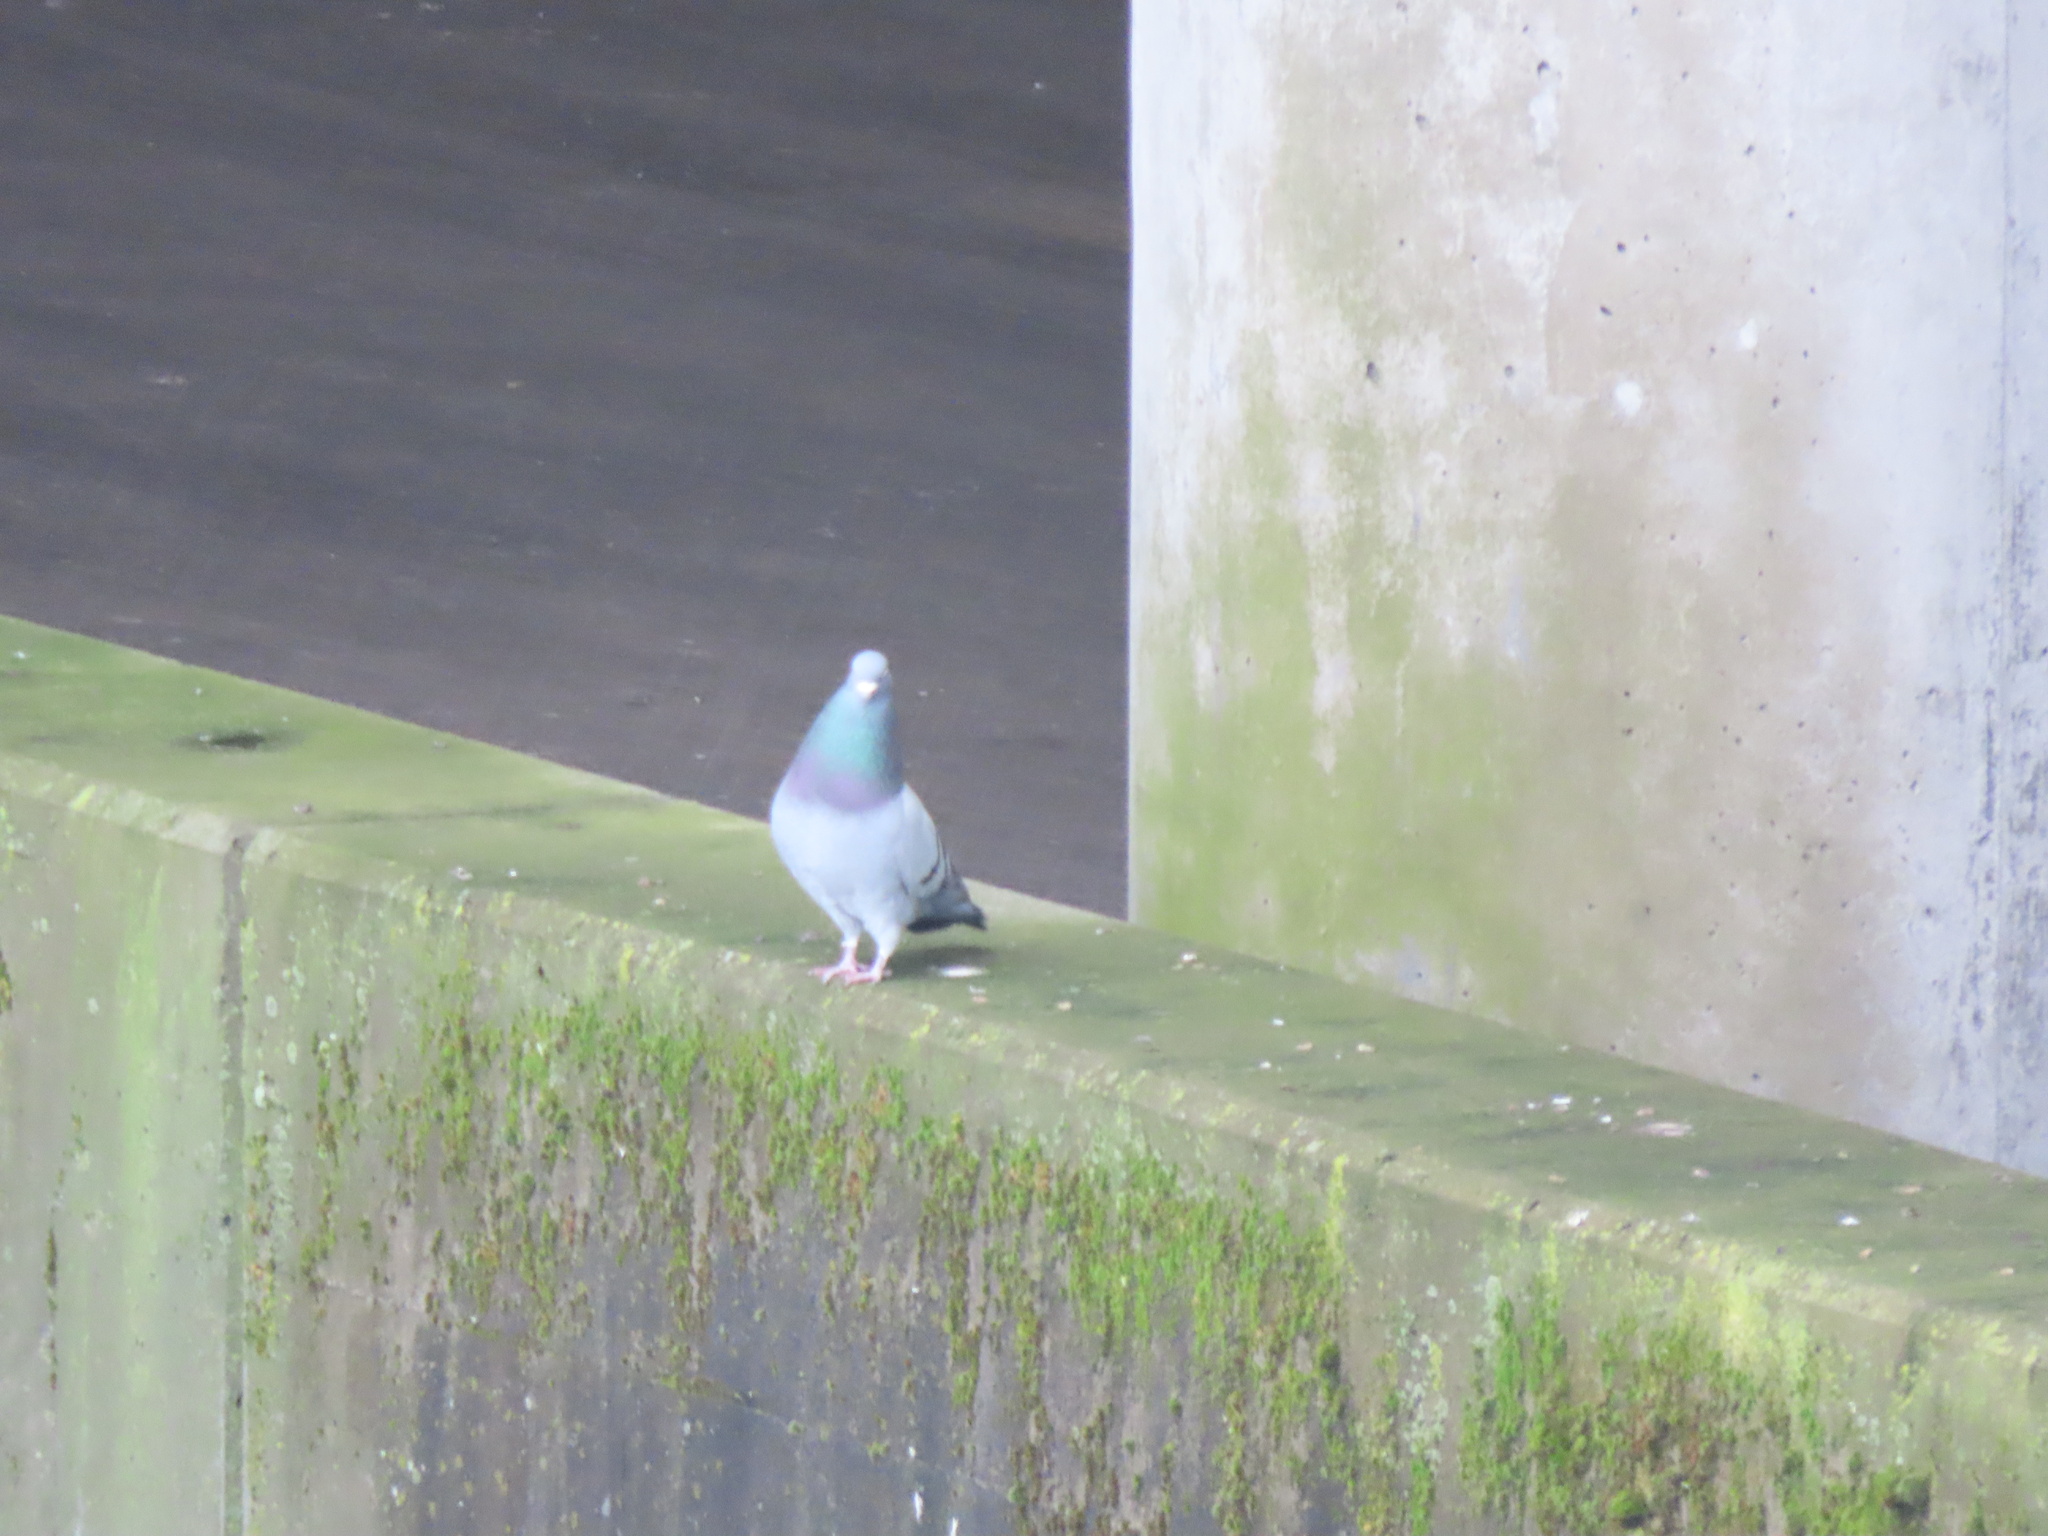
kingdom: Animalia
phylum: Chordata
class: Aves
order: Columbiformes
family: Columbidae
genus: Columba
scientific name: Columba livia
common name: Rock pigeon
